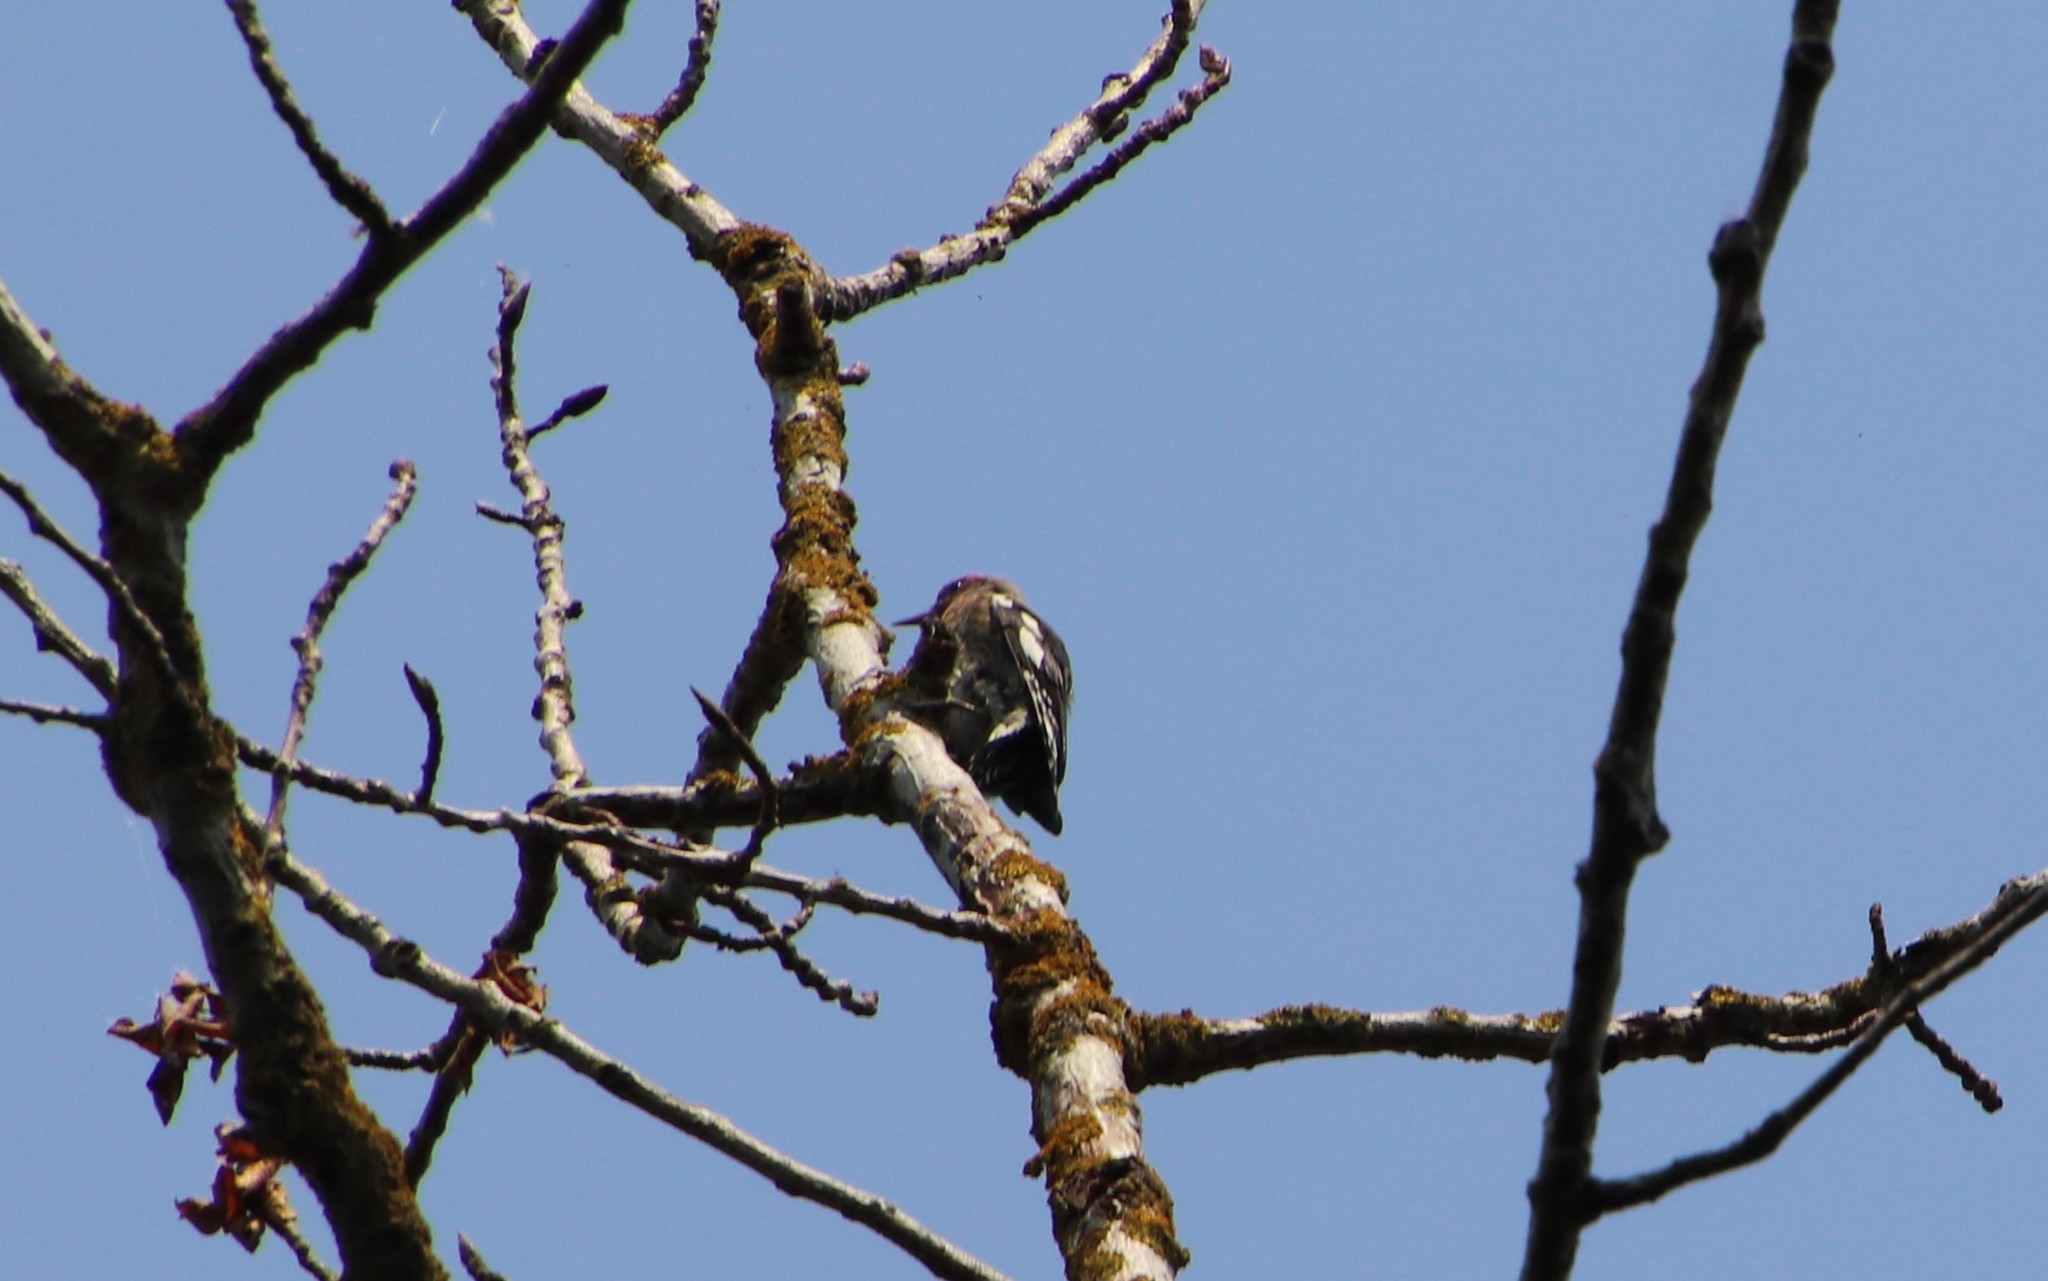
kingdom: Animalia
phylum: Chordata
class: Aves
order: Piciformes
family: Picidae
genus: Sphyrapicus
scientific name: Sphyrapicus ruber
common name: Red-breasted sapsucker
